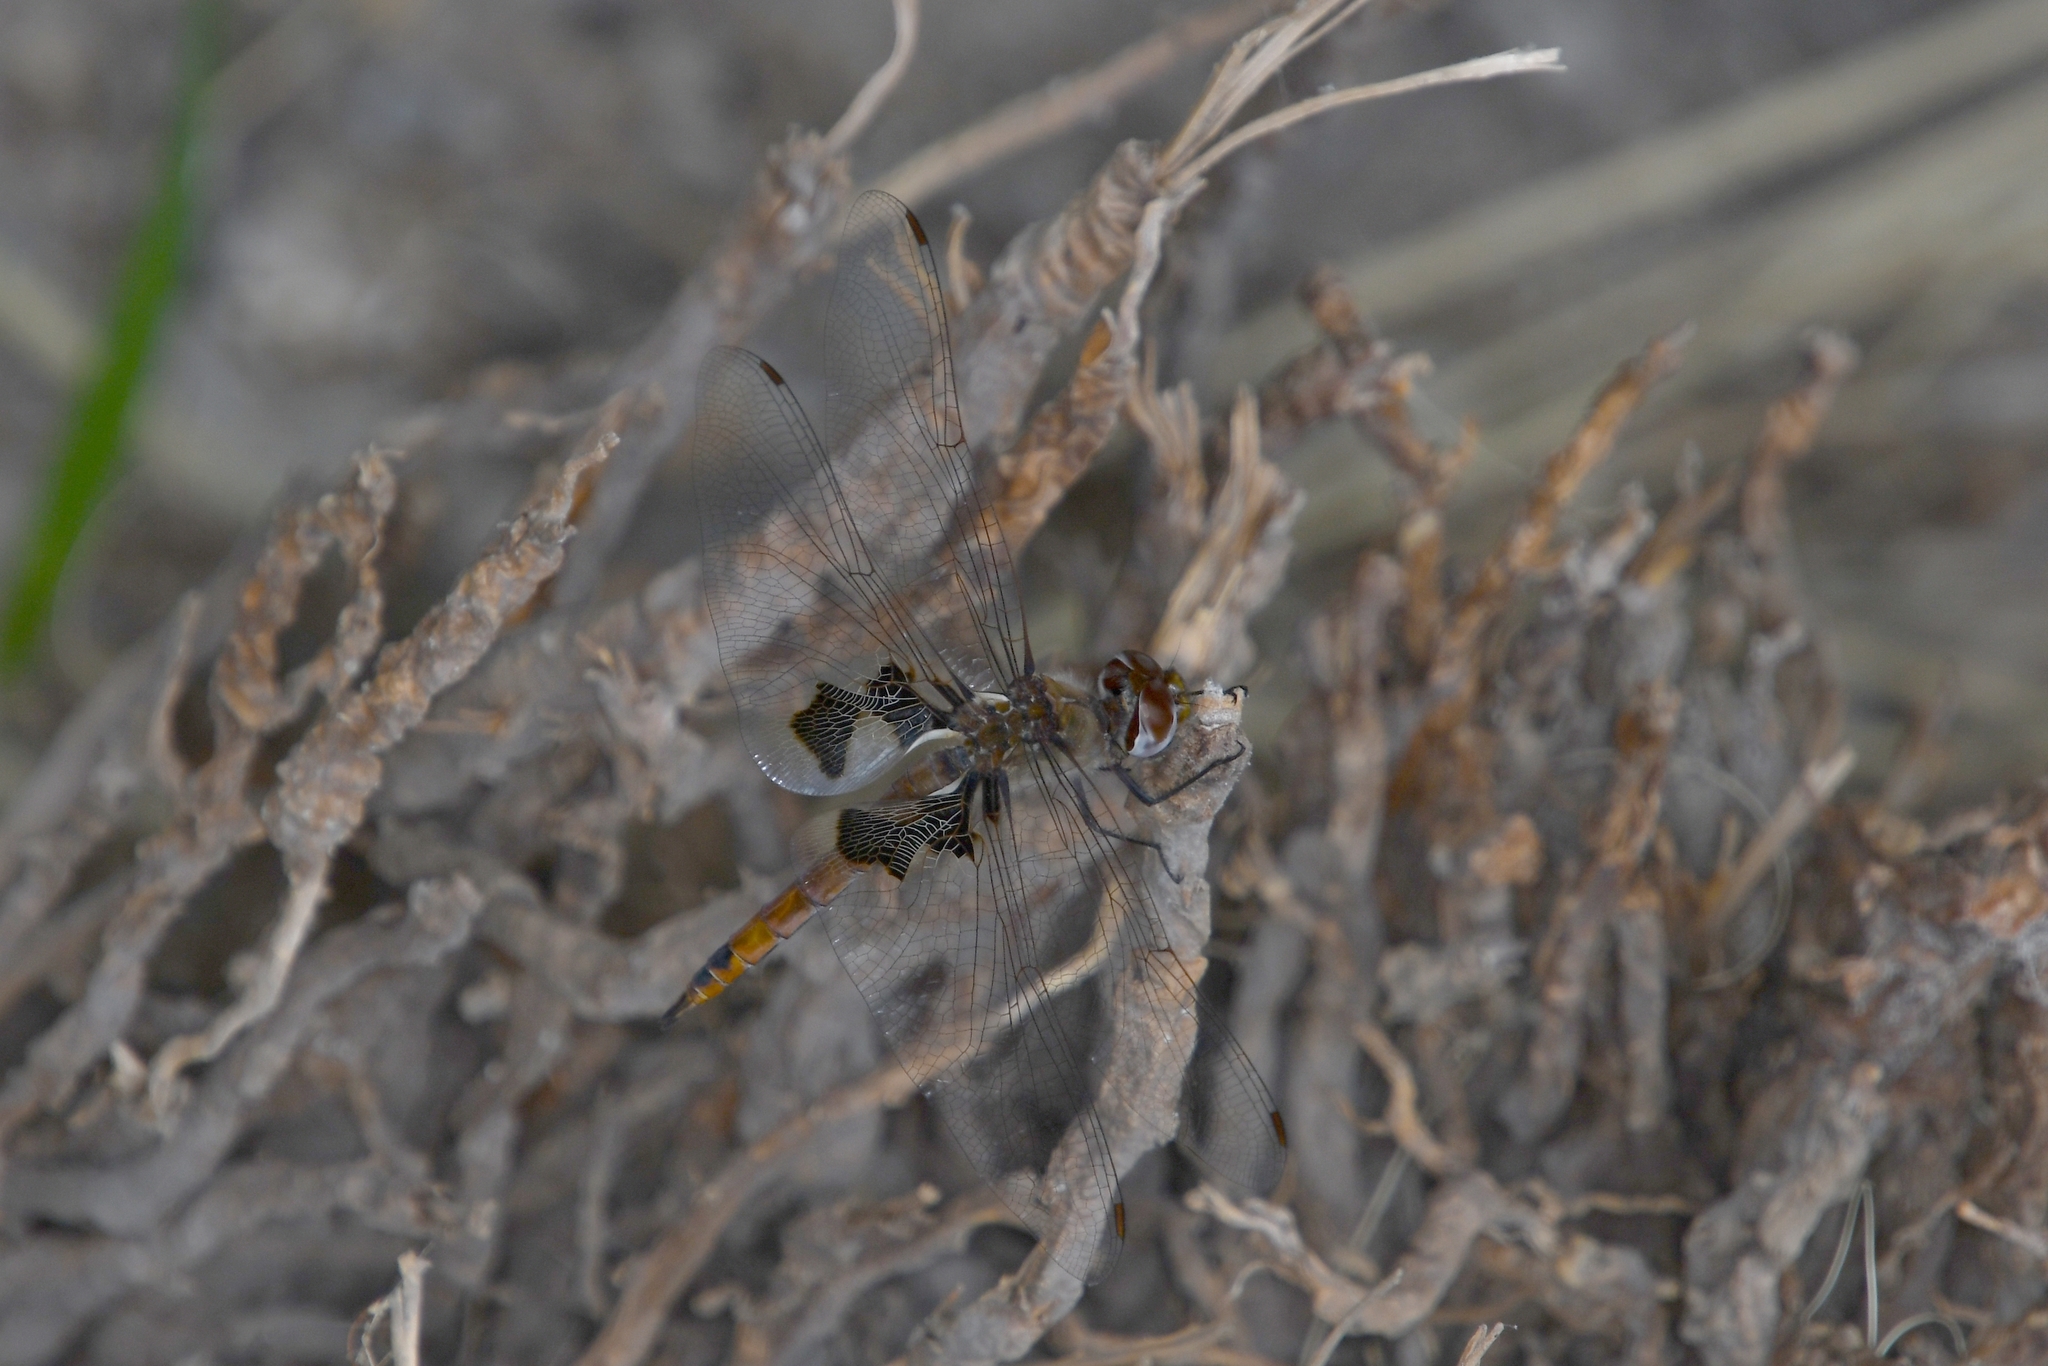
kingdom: Animalia
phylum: Arthropoda
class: Insecta
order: Odonata
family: Libellulidae
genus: Tramea
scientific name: Tramea onusta
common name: Red saddlebags
